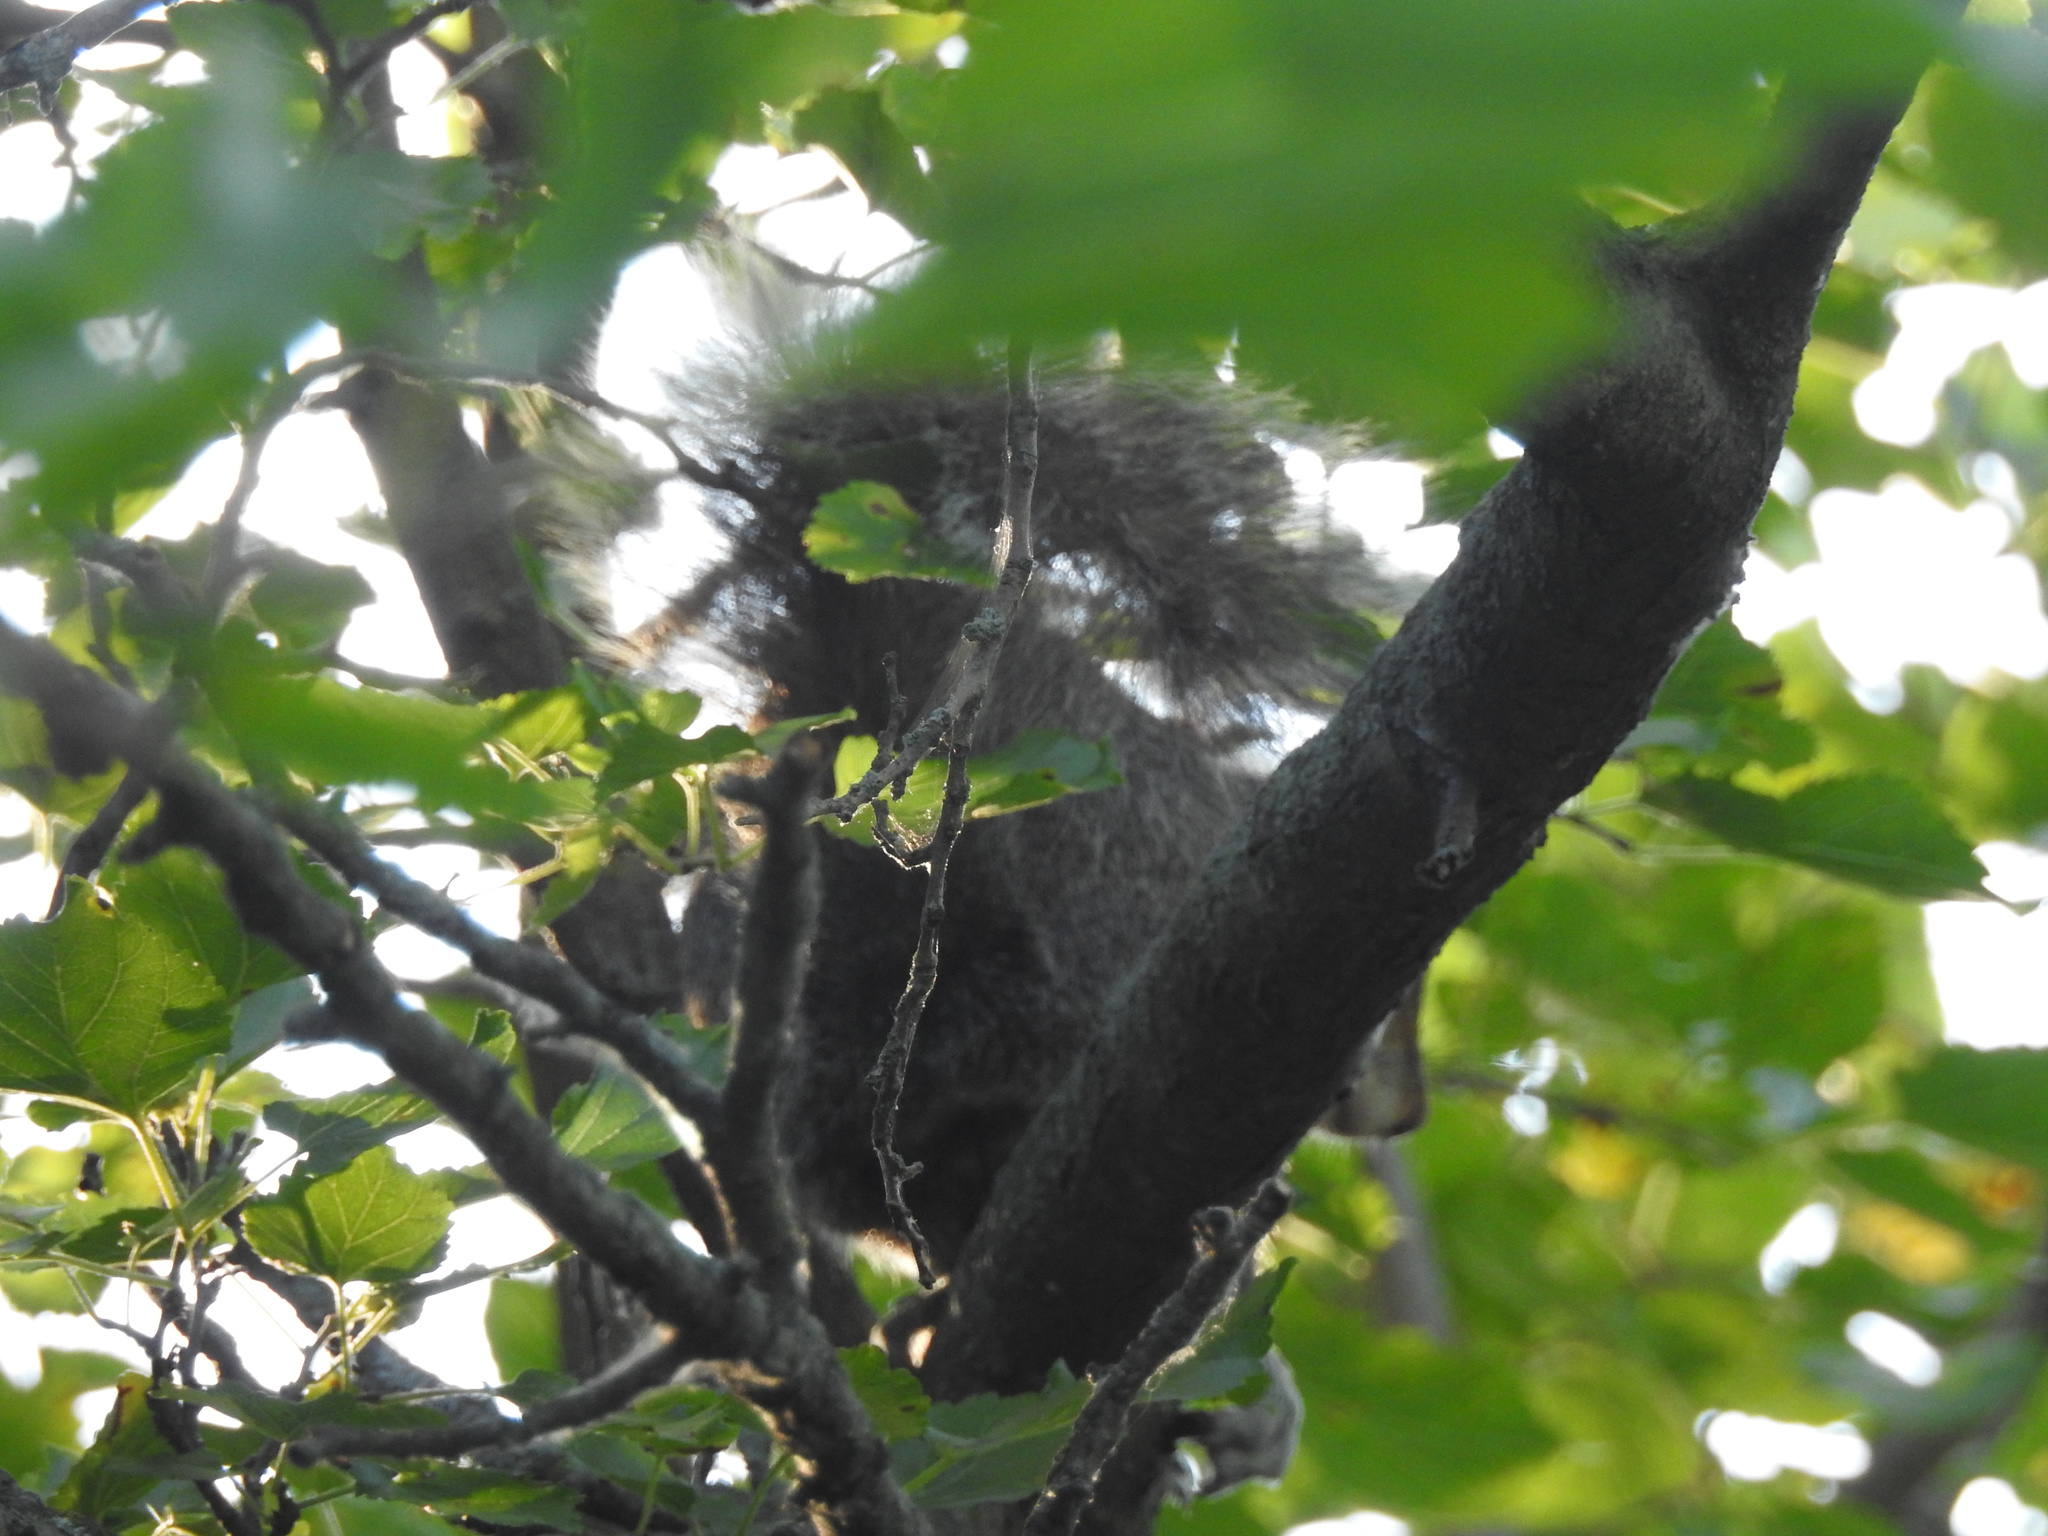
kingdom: Animalia
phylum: Chordata
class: Mammalia
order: Rodentia
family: Sciuridae
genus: Sciurus
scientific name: Sciurus carolinensis
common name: Eastern gray squirrel
